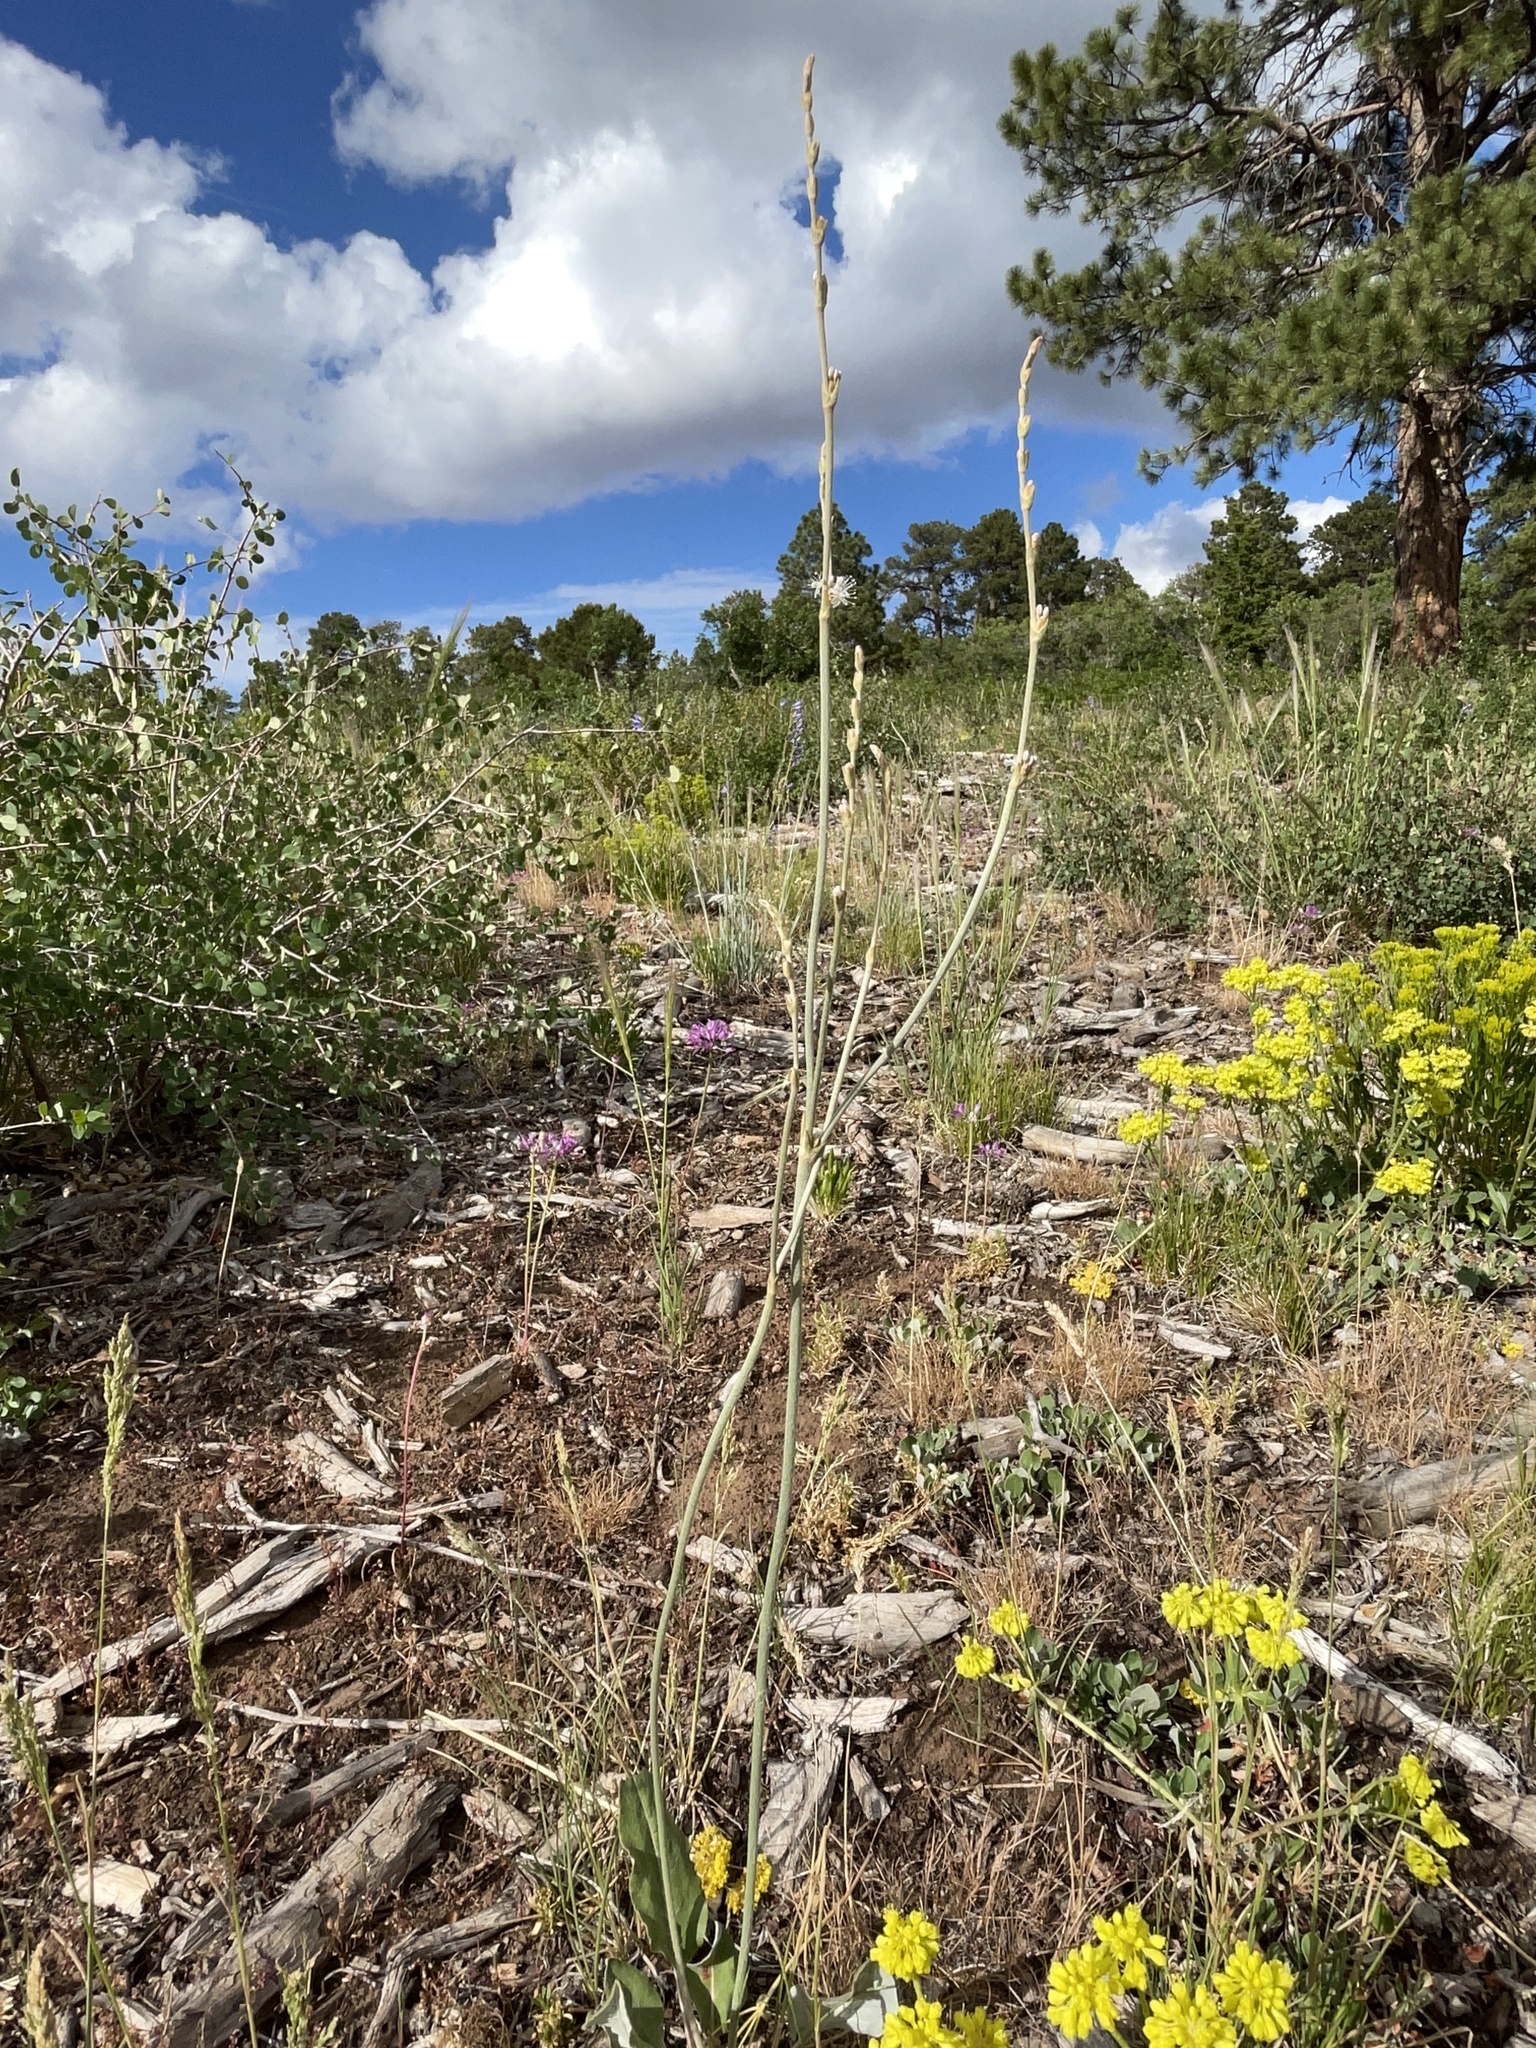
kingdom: Plantae
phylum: Tracheophyta
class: Magnoliopsida
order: Caryophyllales
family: Polygonaceae
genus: Eriogonum
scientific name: Eriogonum racemosum
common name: Redroot wild buckwheat
